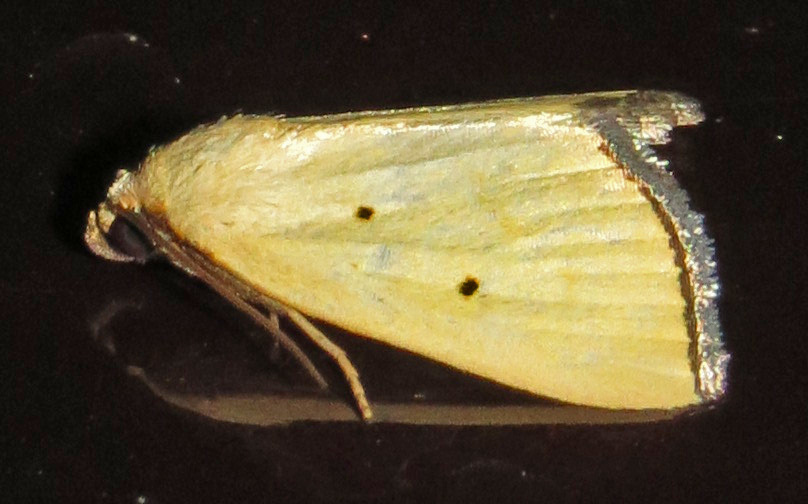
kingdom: Animalia
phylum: Arthropoda
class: Insecta
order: Lepidoptera
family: Noctuidae
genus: Marimatha
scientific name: Marimatha nigrofimbria
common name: Black-bordered lemon moth
